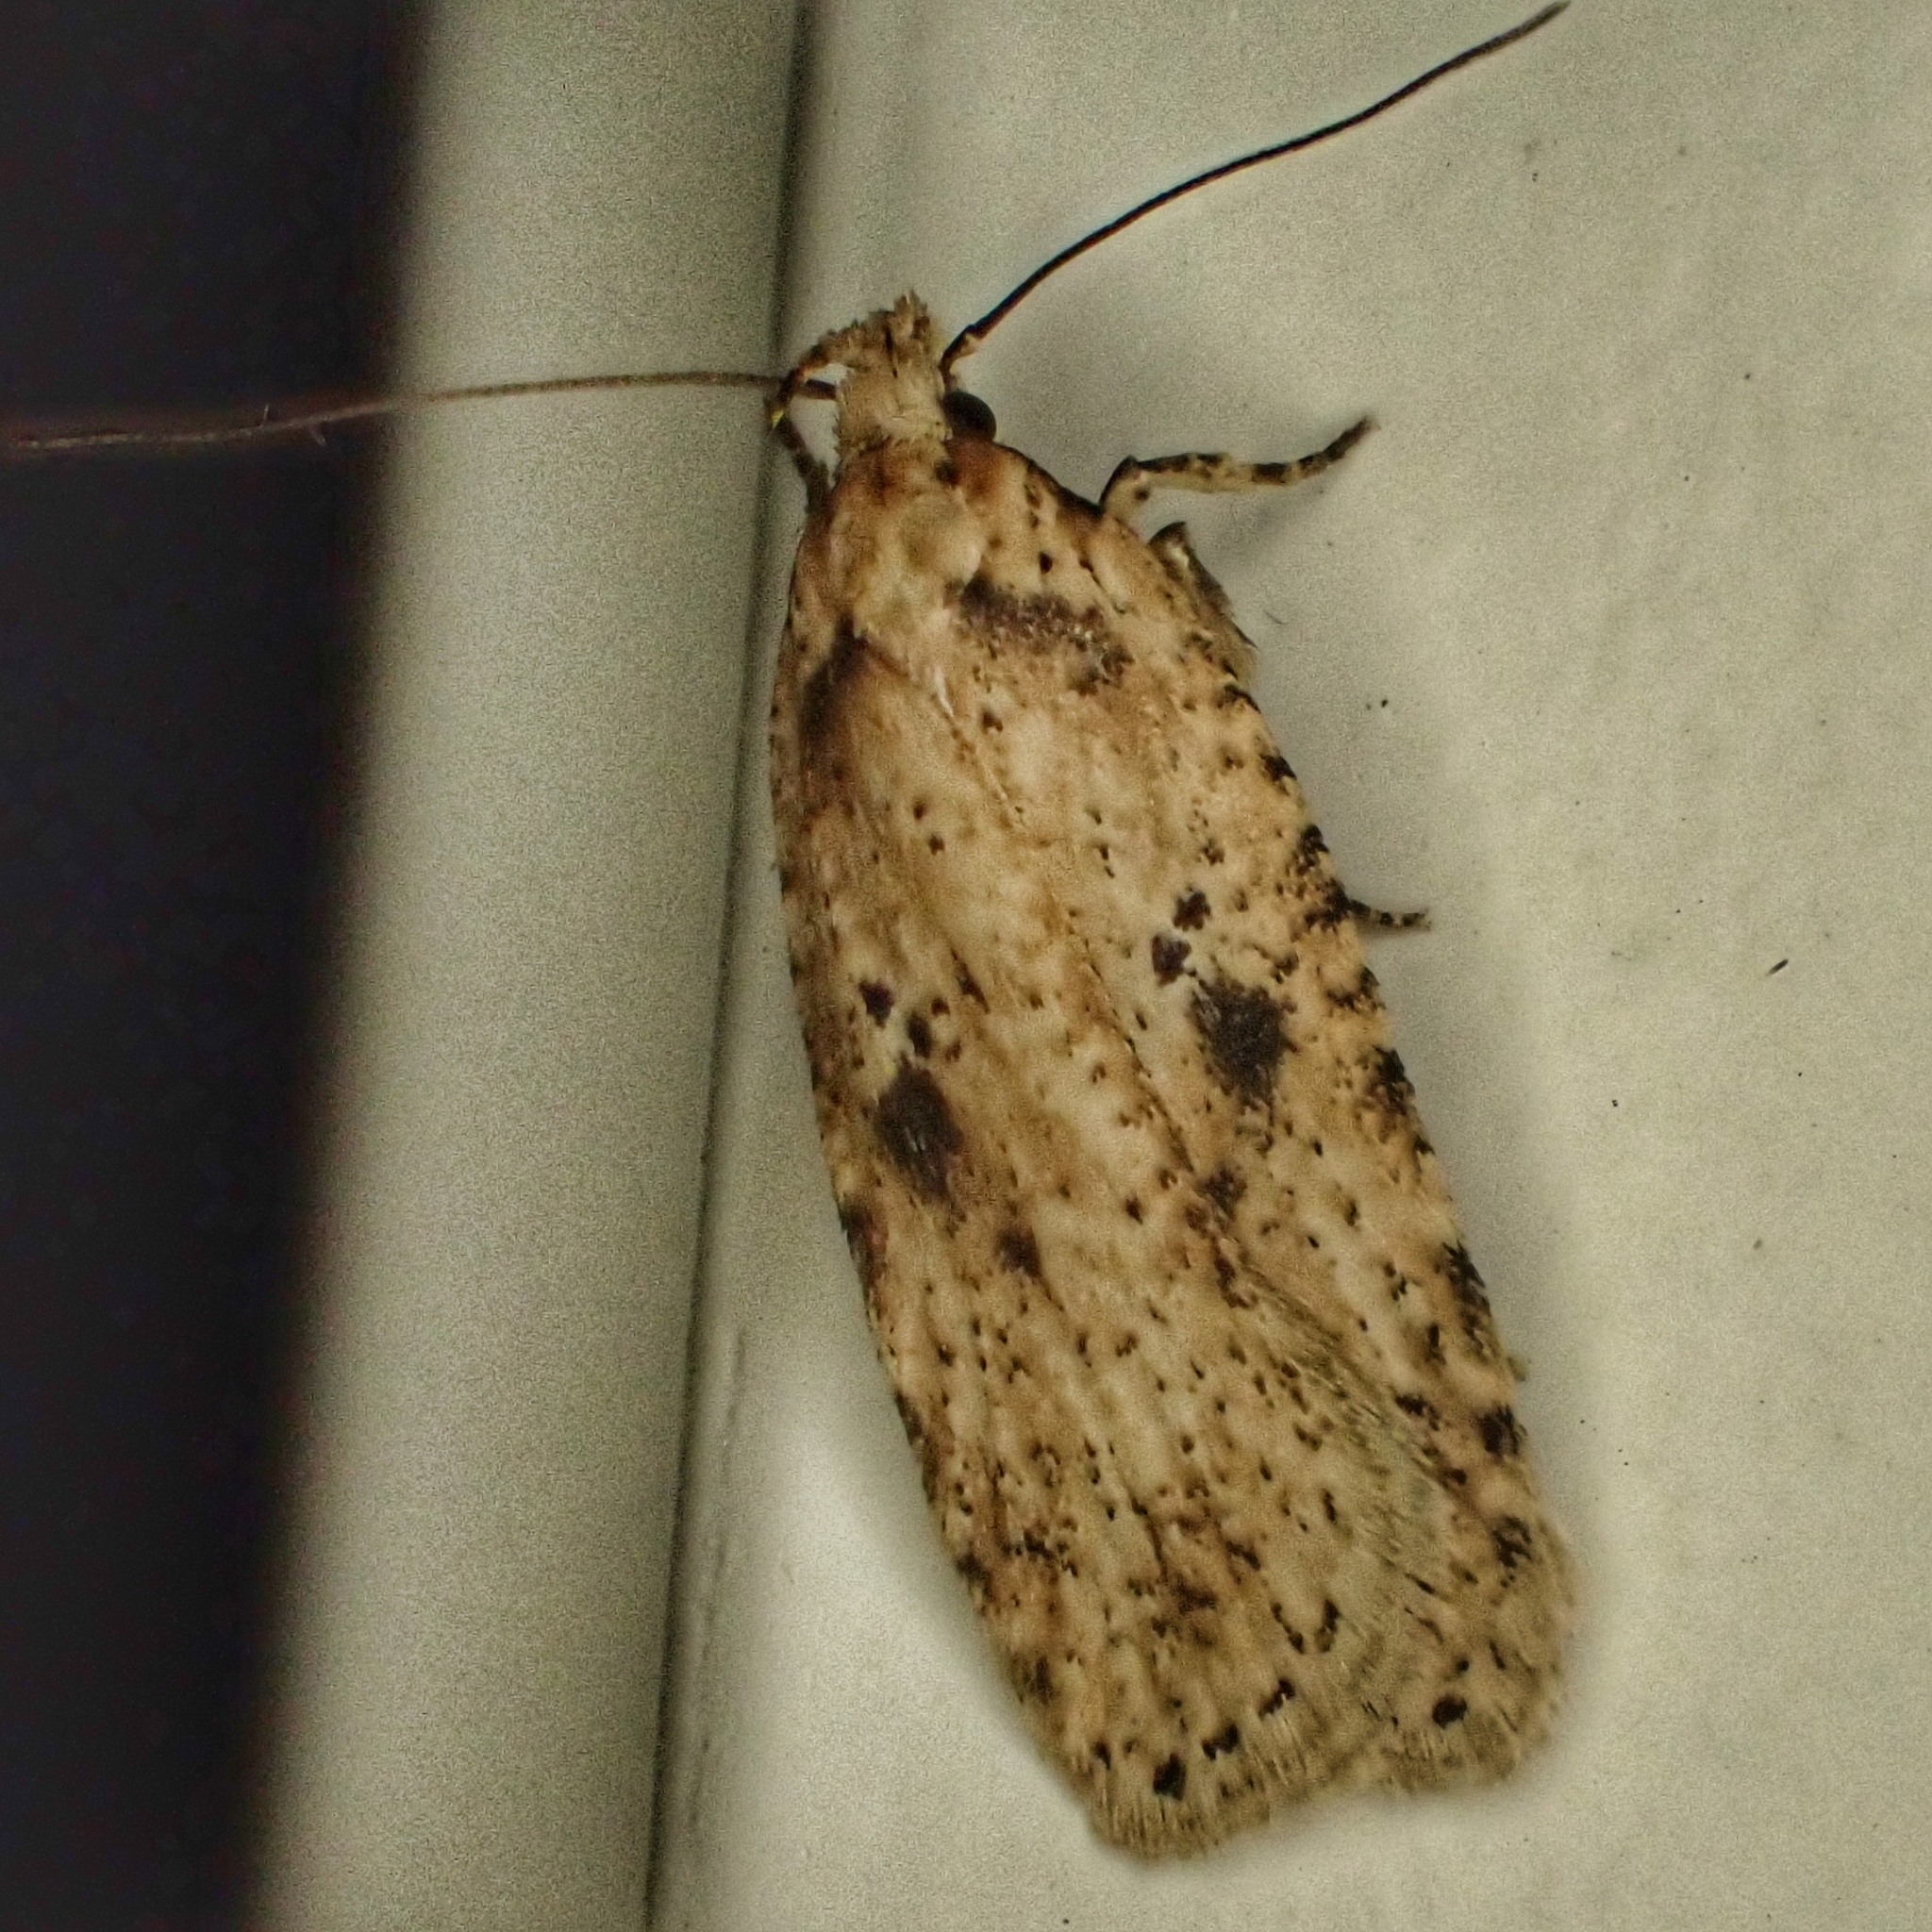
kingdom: Animalia
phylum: Arthropoda
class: Insecta
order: Lepidoptera
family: Depressariidae
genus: Agonopterix
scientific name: Agonopterix arenella
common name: Brindled flat-body
